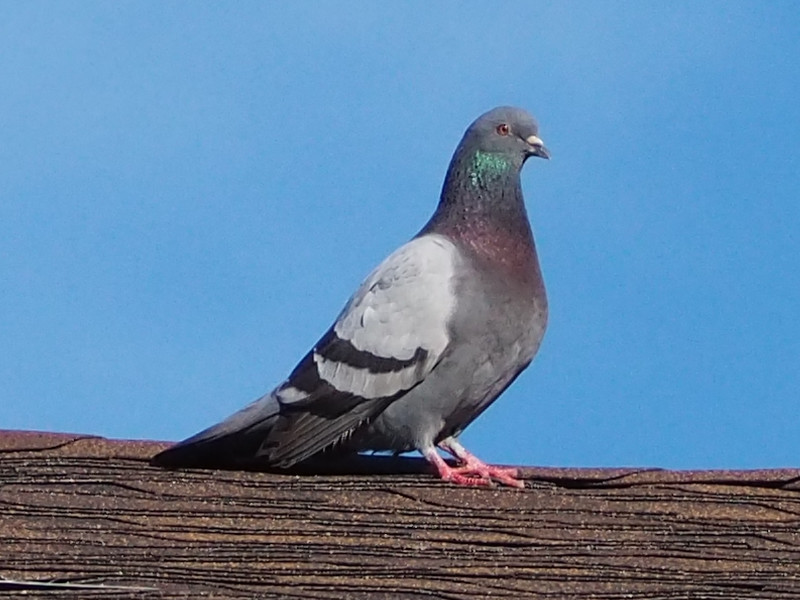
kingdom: Animalia
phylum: Chordata
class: Aves
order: Columbiformes
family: Columbidae
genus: Columba
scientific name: Columba livia
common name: Rock pigeon
